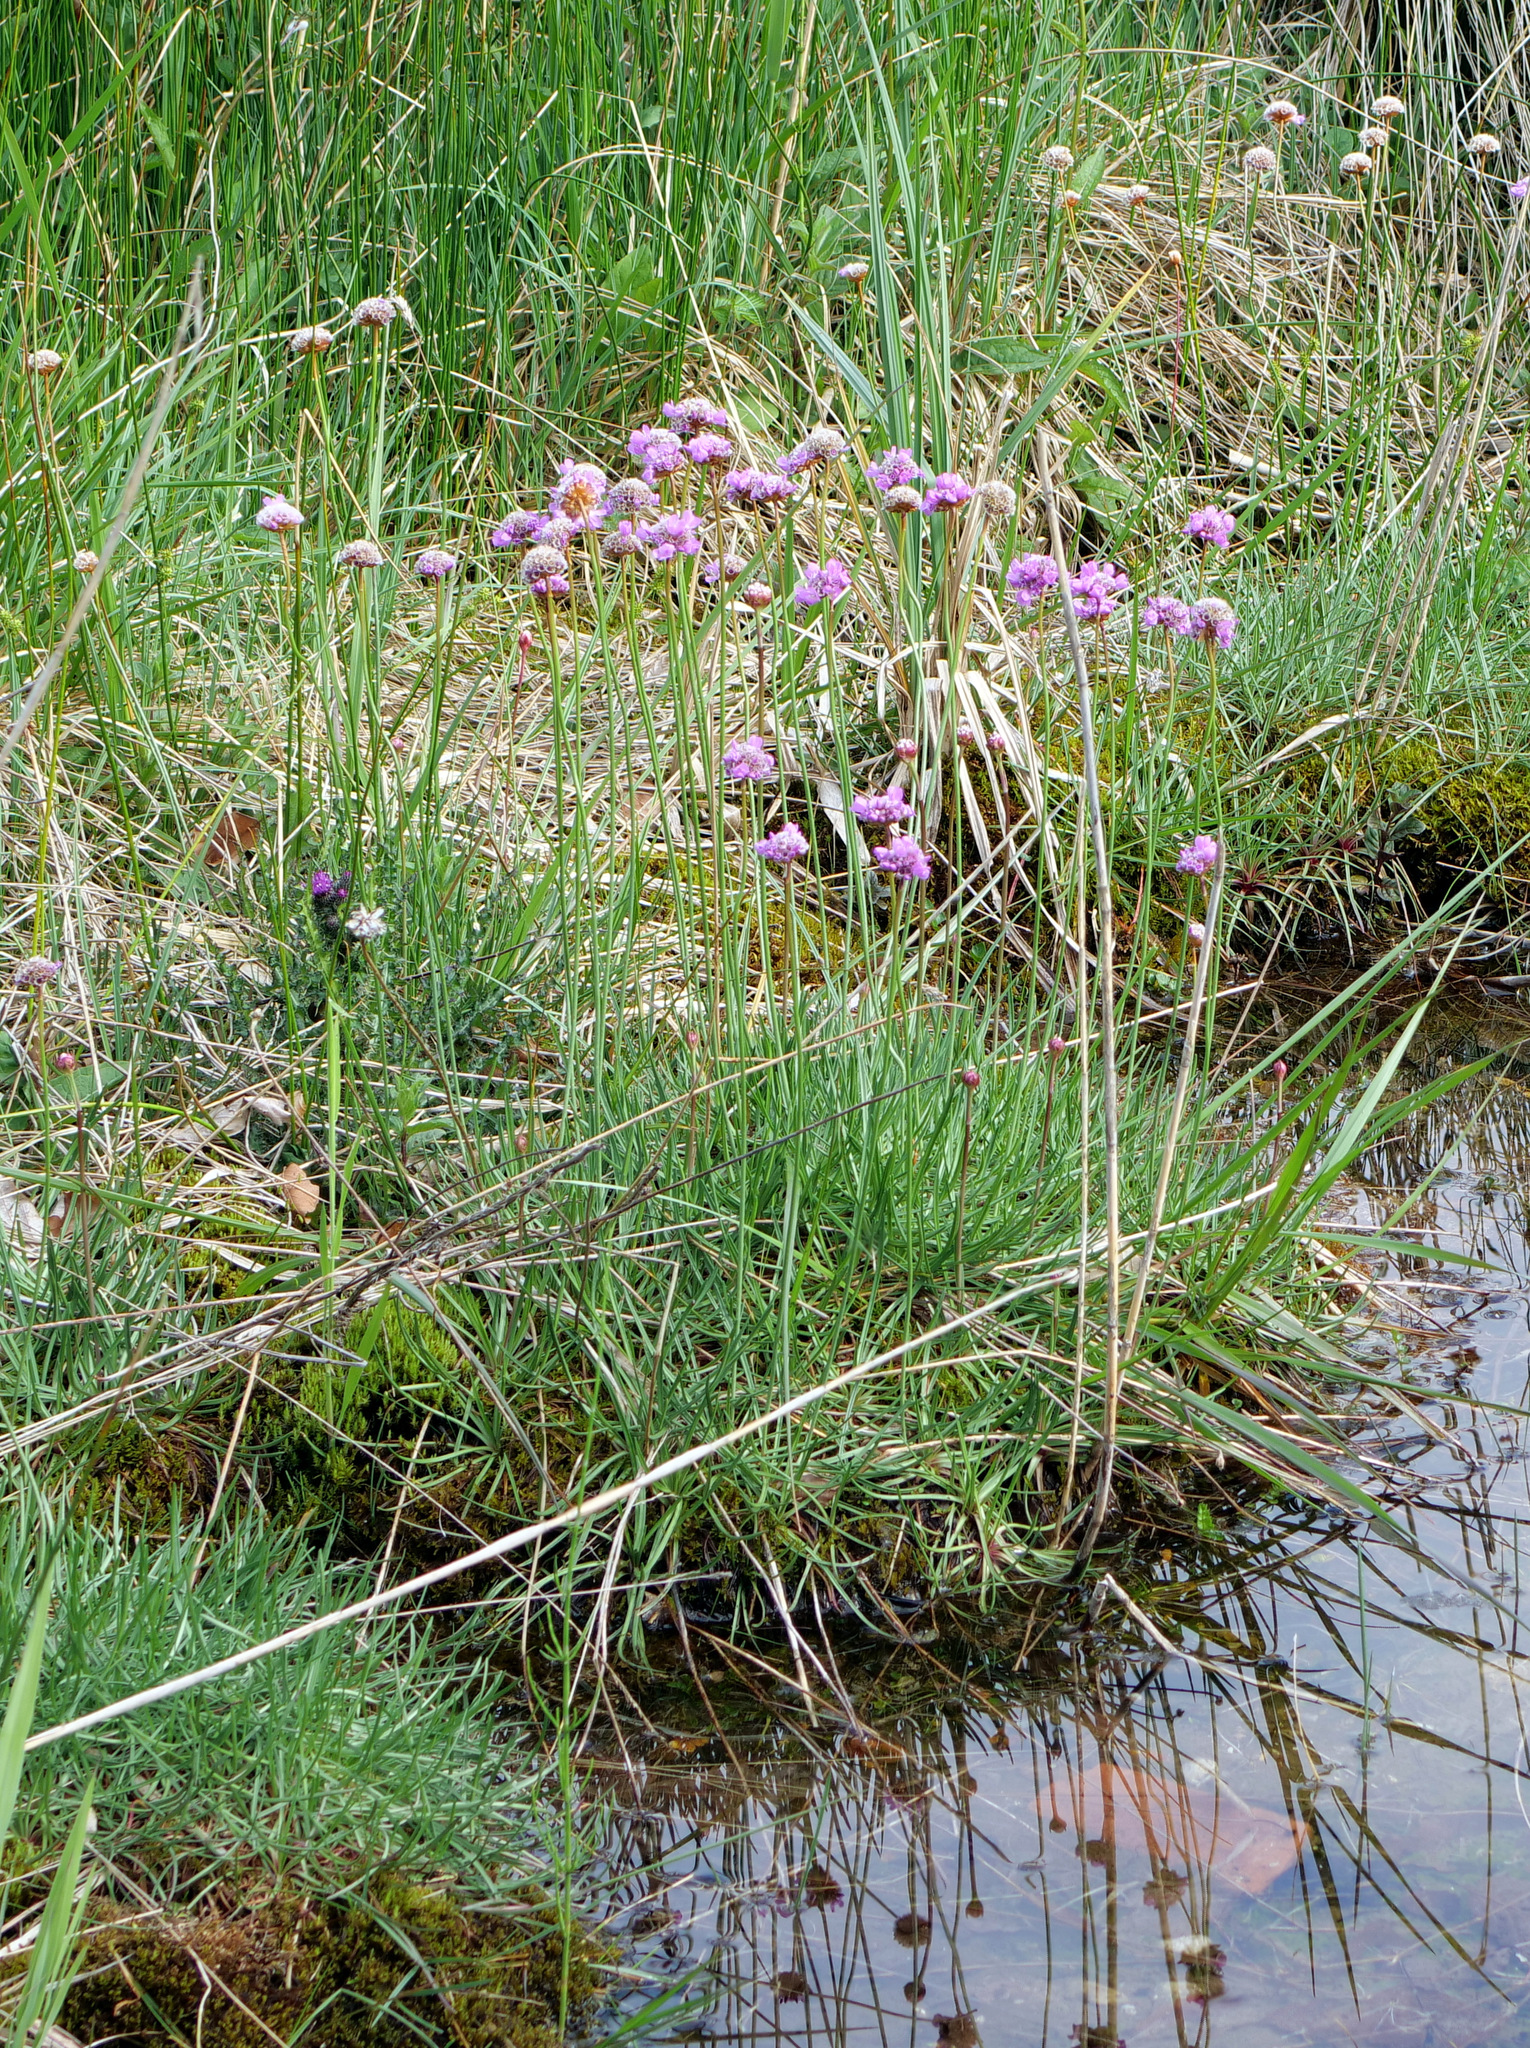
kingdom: Plantae
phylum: Tracheophyta
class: Magnoliopsida
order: Caryophyllales
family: Plumbaginaceae
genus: Armeria
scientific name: Armeria purpurea
